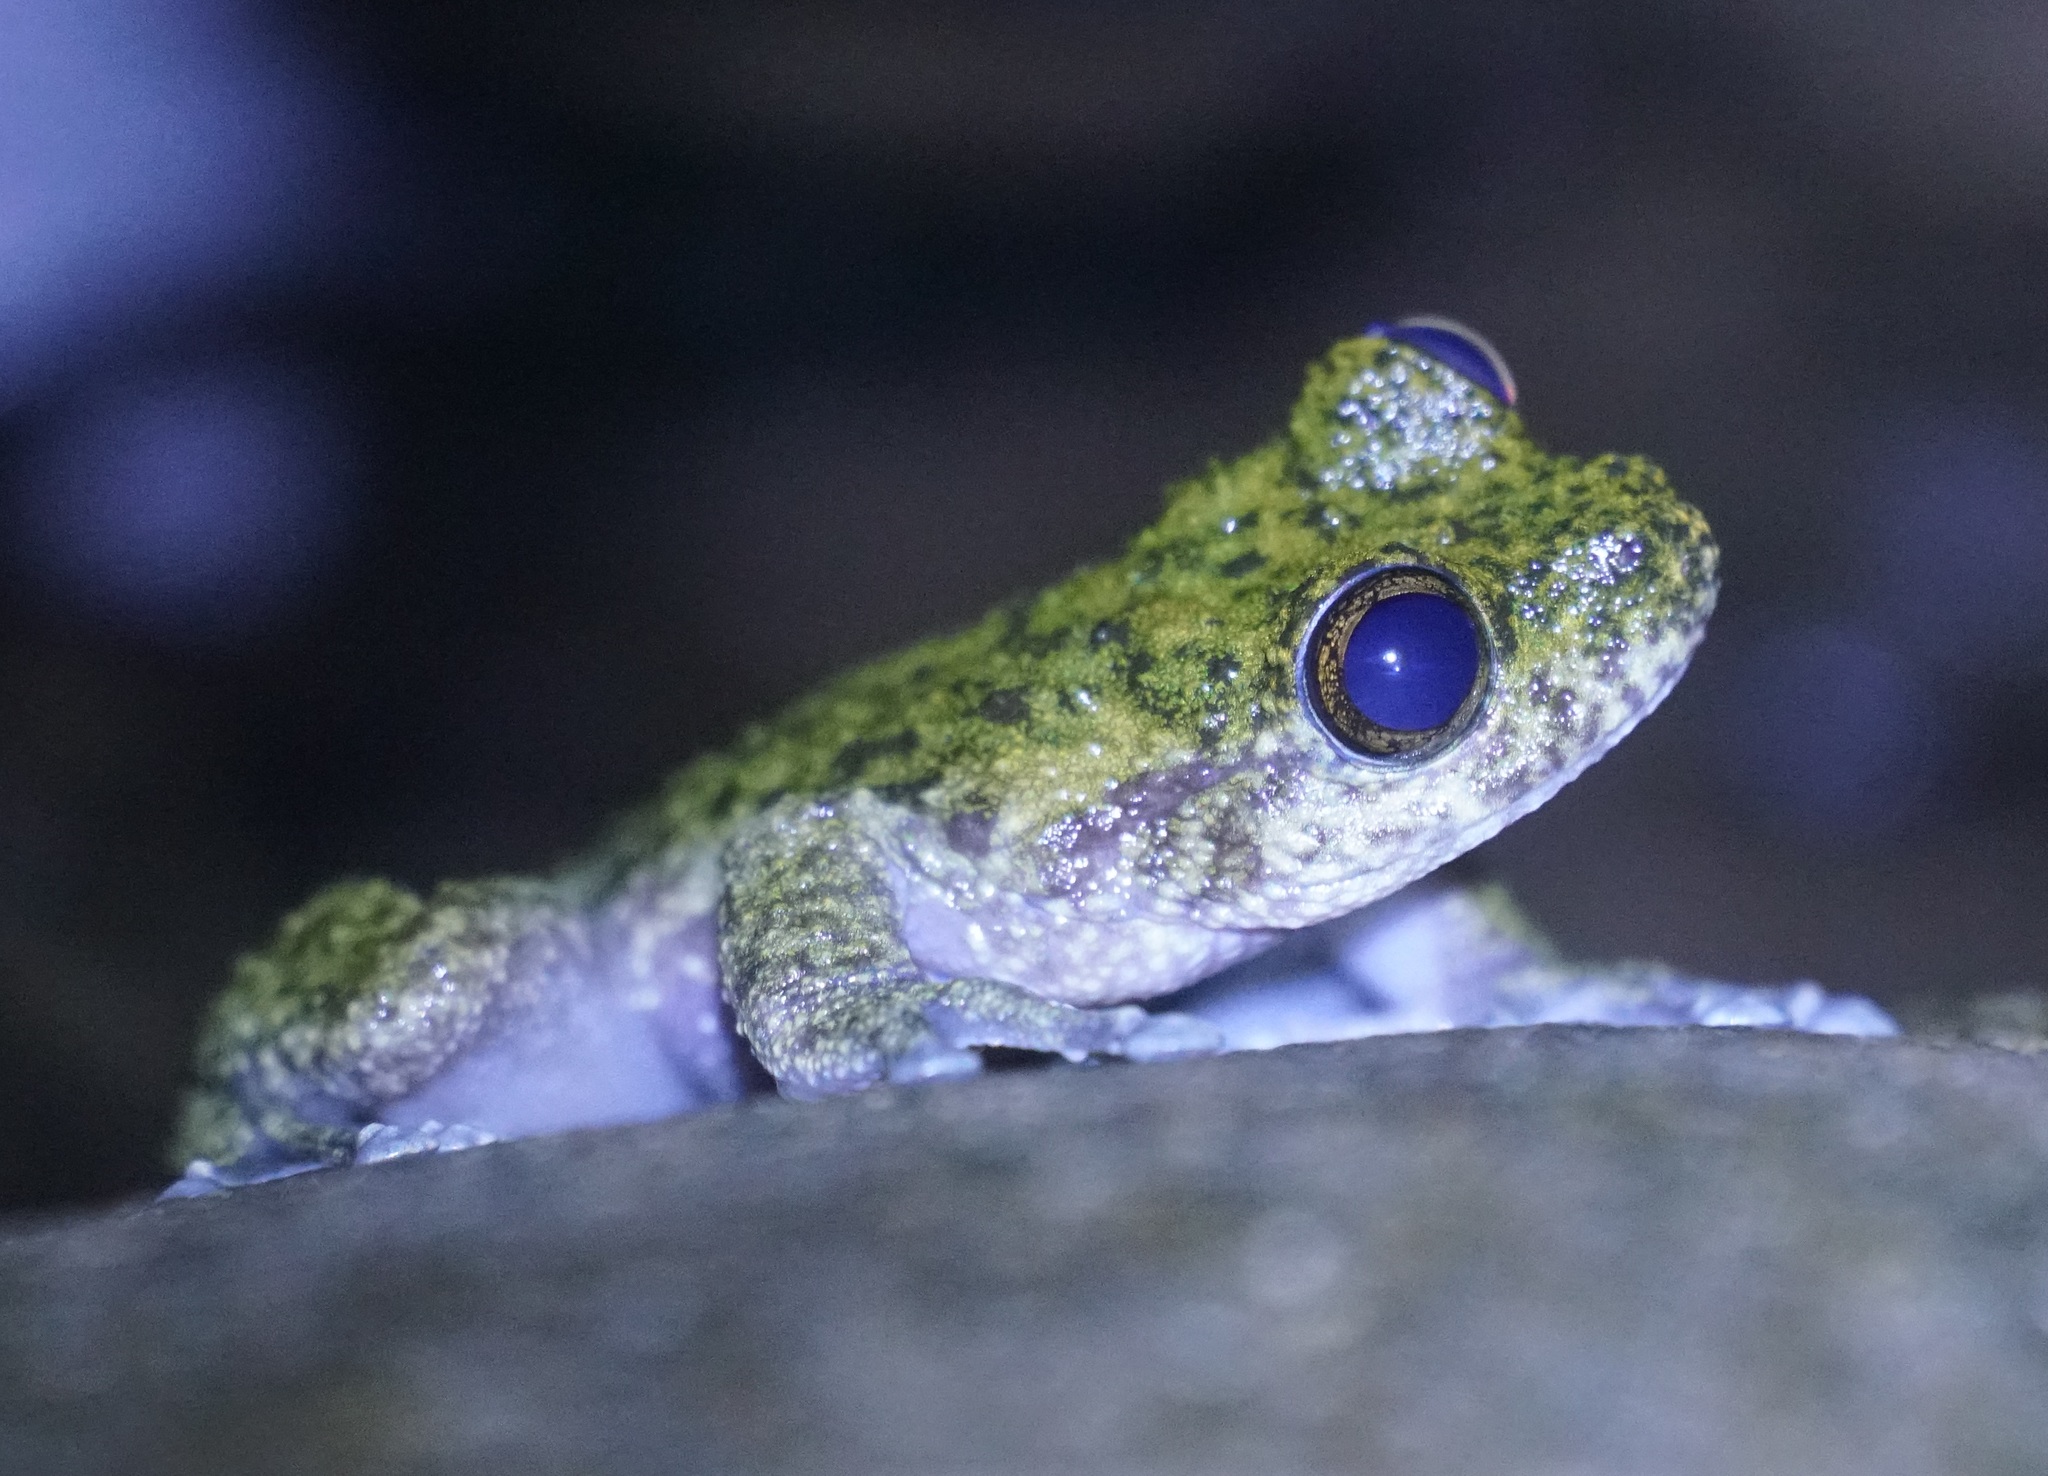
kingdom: Animalia
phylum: Chordata
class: Amphibia
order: Anura
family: Pelodryadidae
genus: Ranoidea
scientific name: Ranoidea nannotis
